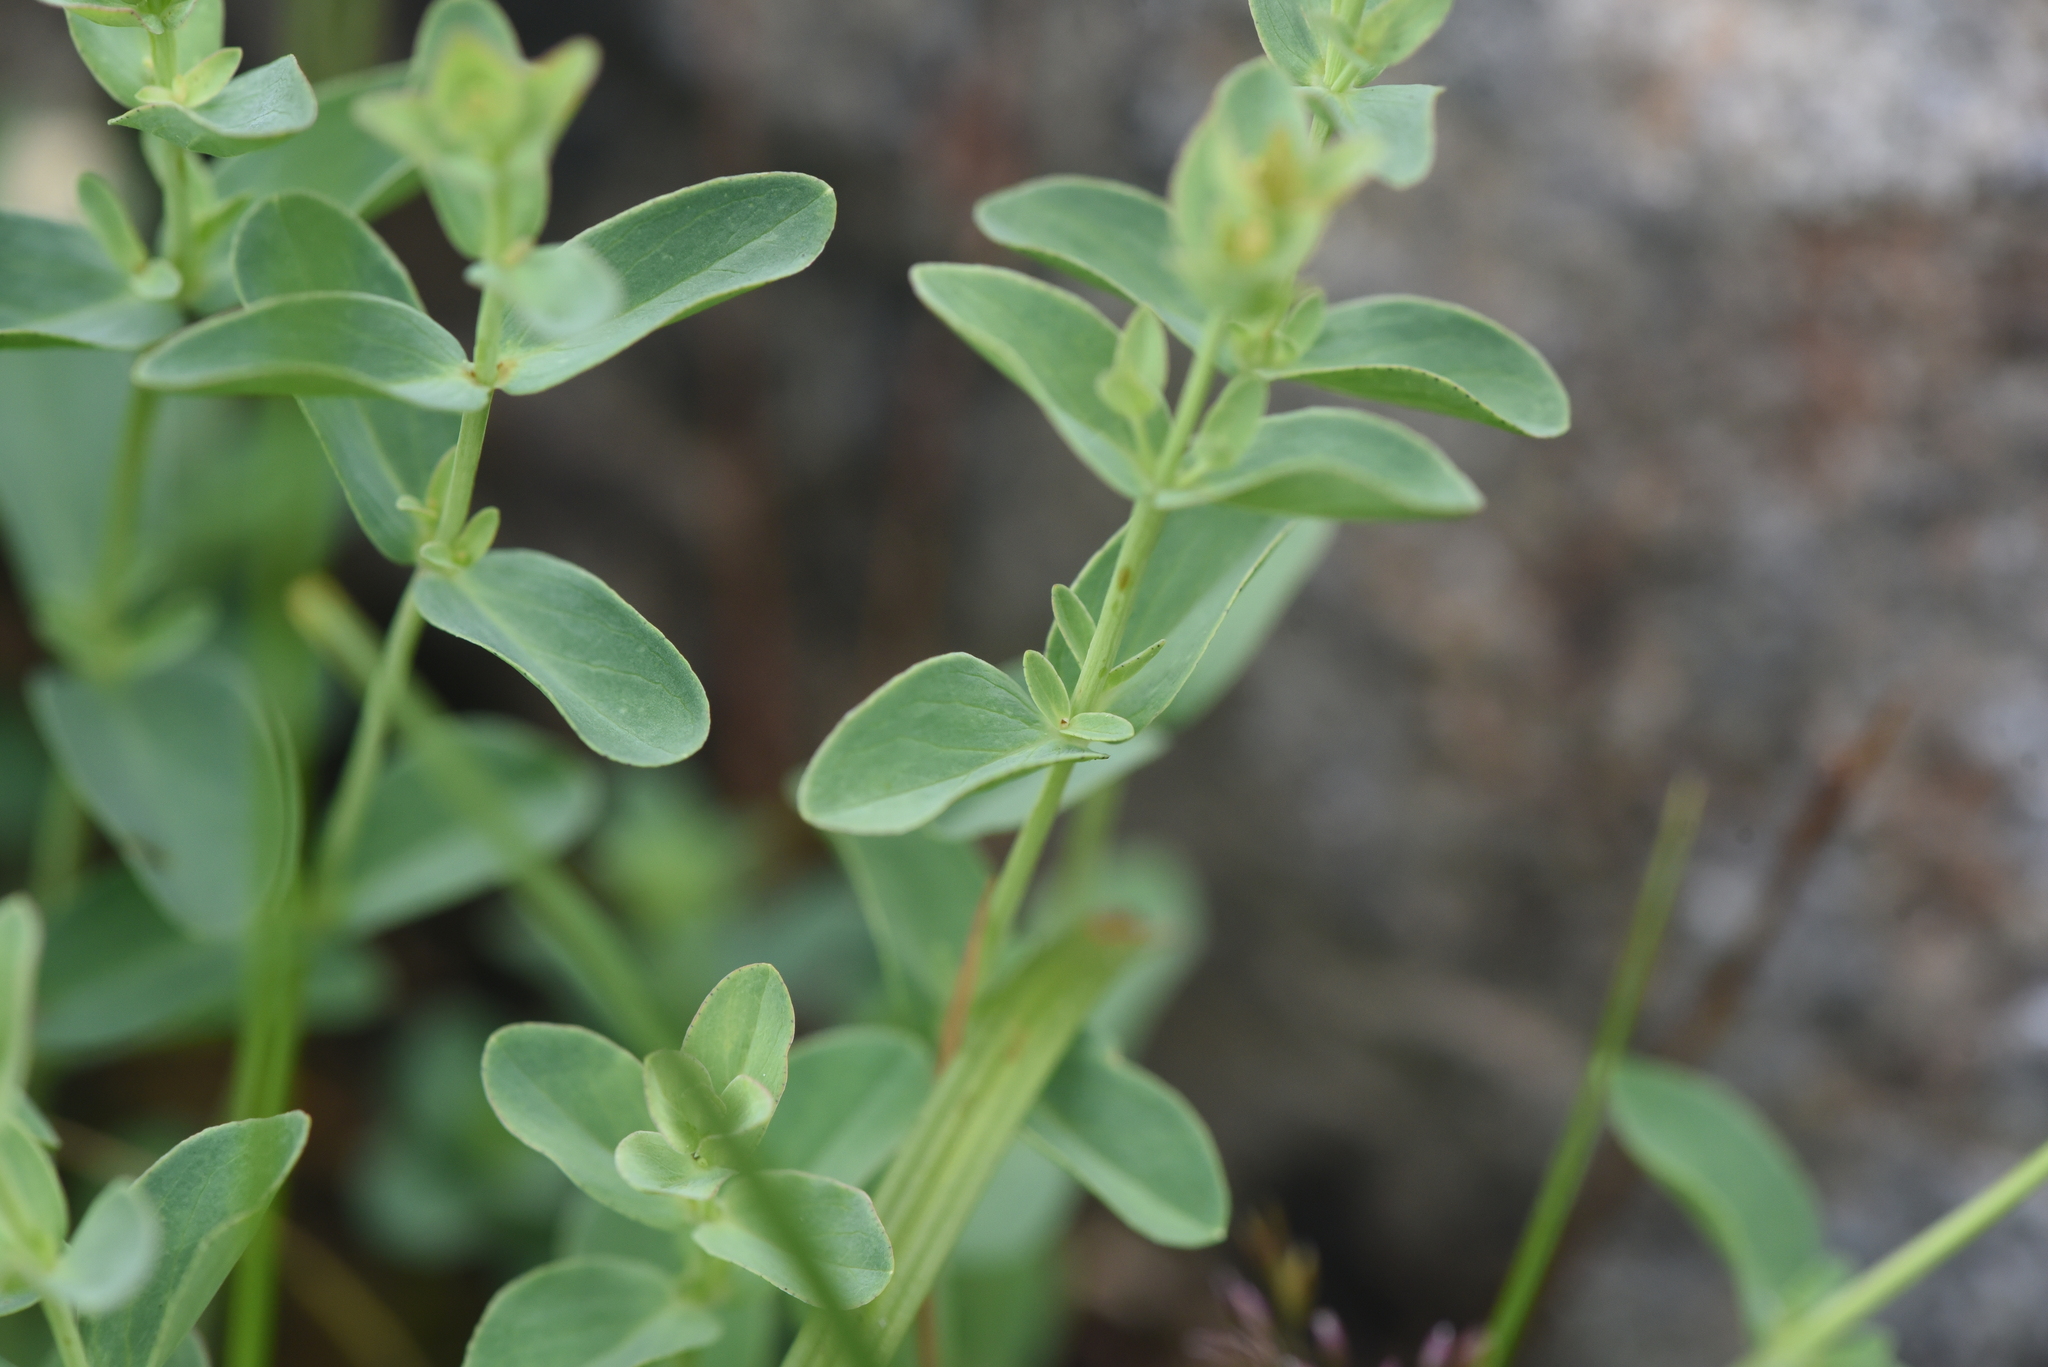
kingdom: Plantae
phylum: Tracheophyta
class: Magnoliopsida
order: Malpighiales
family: Hypericaceae
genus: Hypericum
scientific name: Hypericum scouleri
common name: Scouler's st. john's-wort
